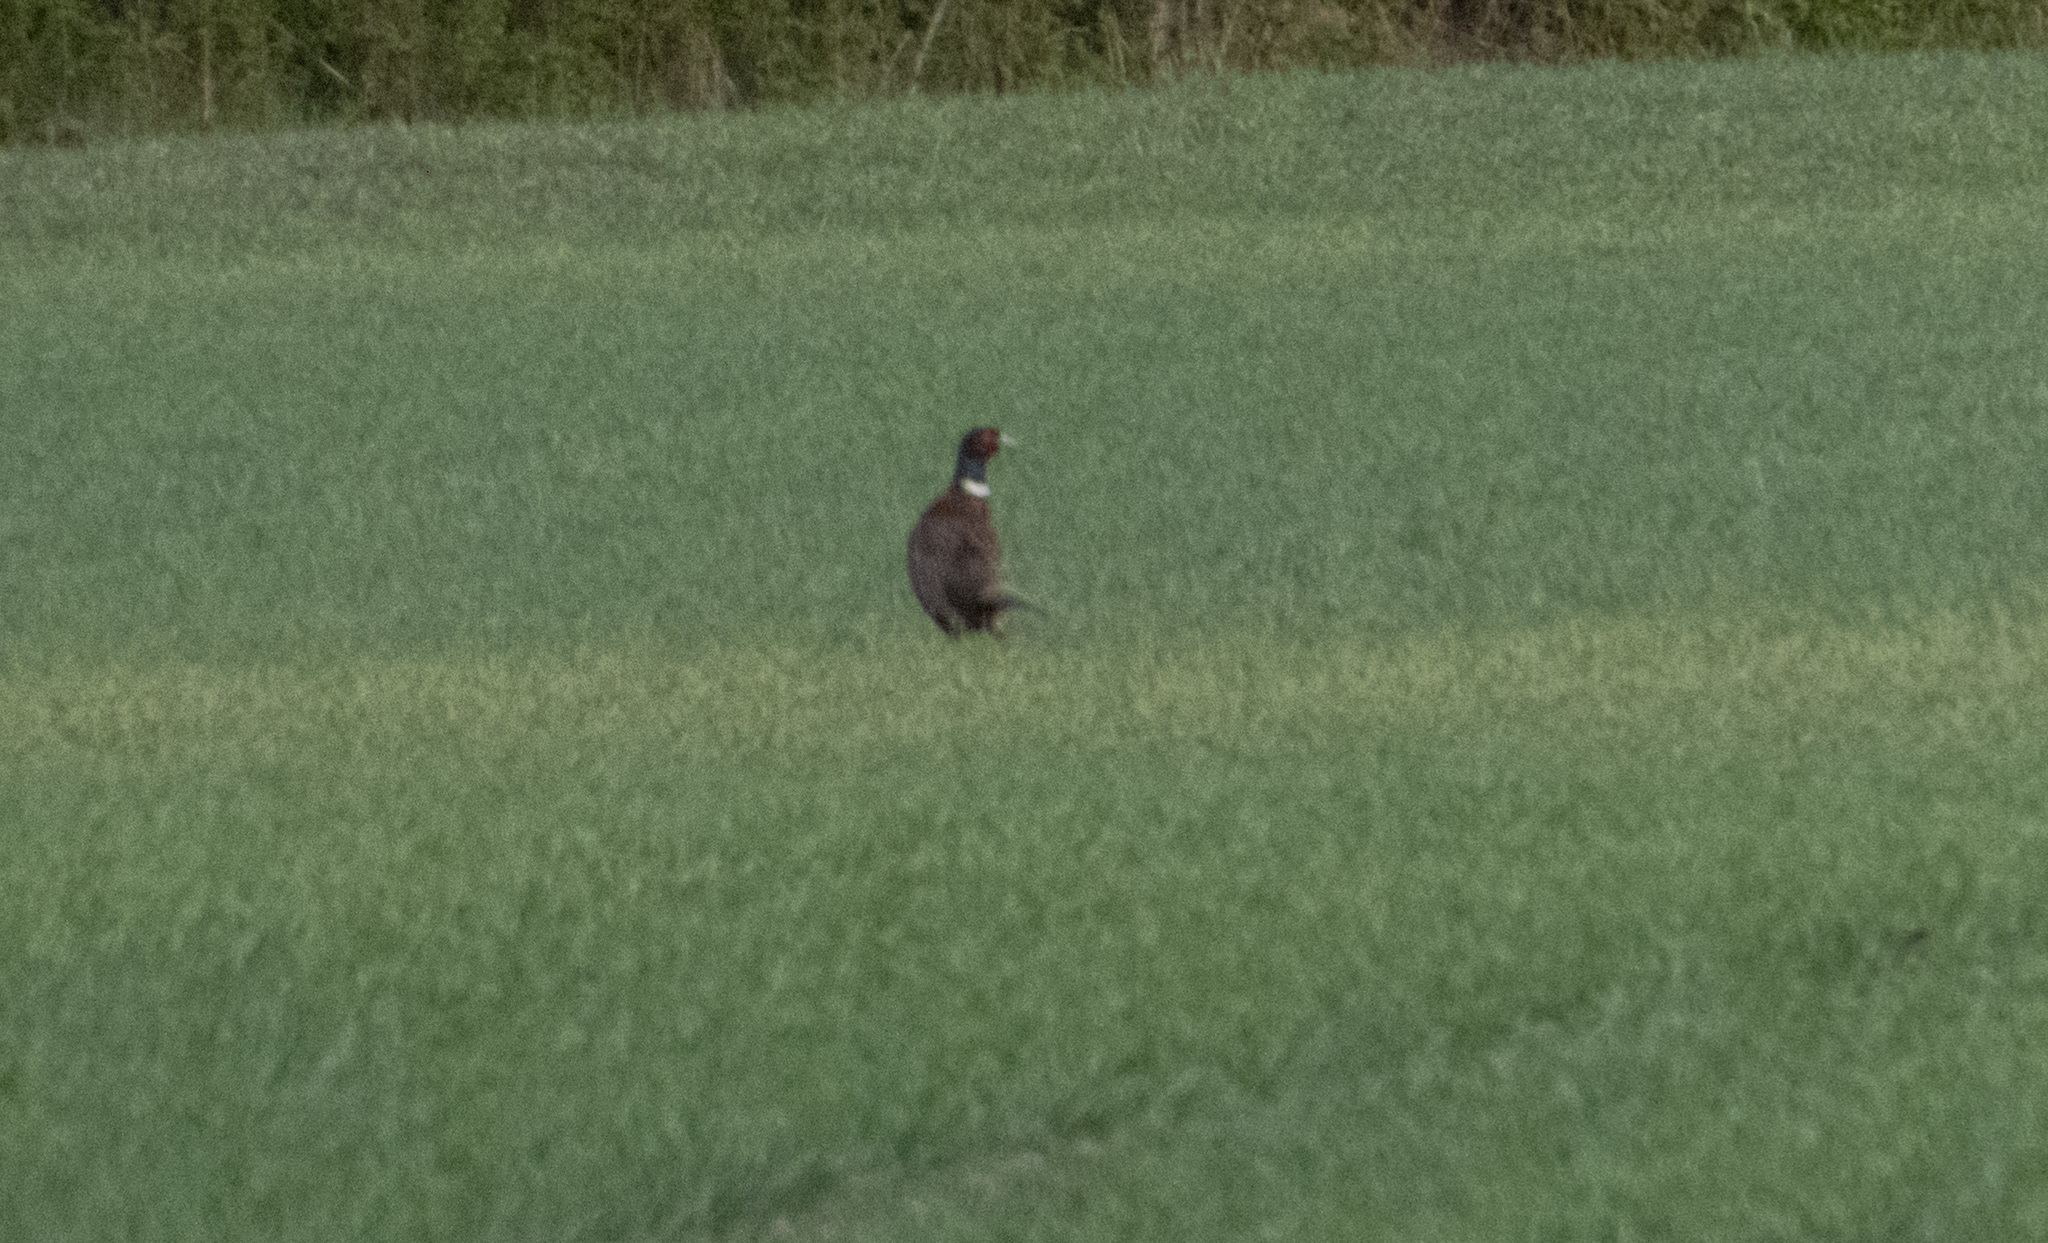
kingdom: Animalia
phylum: Chordata
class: Aves
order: Galliformes
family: Phasianidae
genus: Phasianus
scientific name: Phasianus colchicus
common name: Common pheasant
